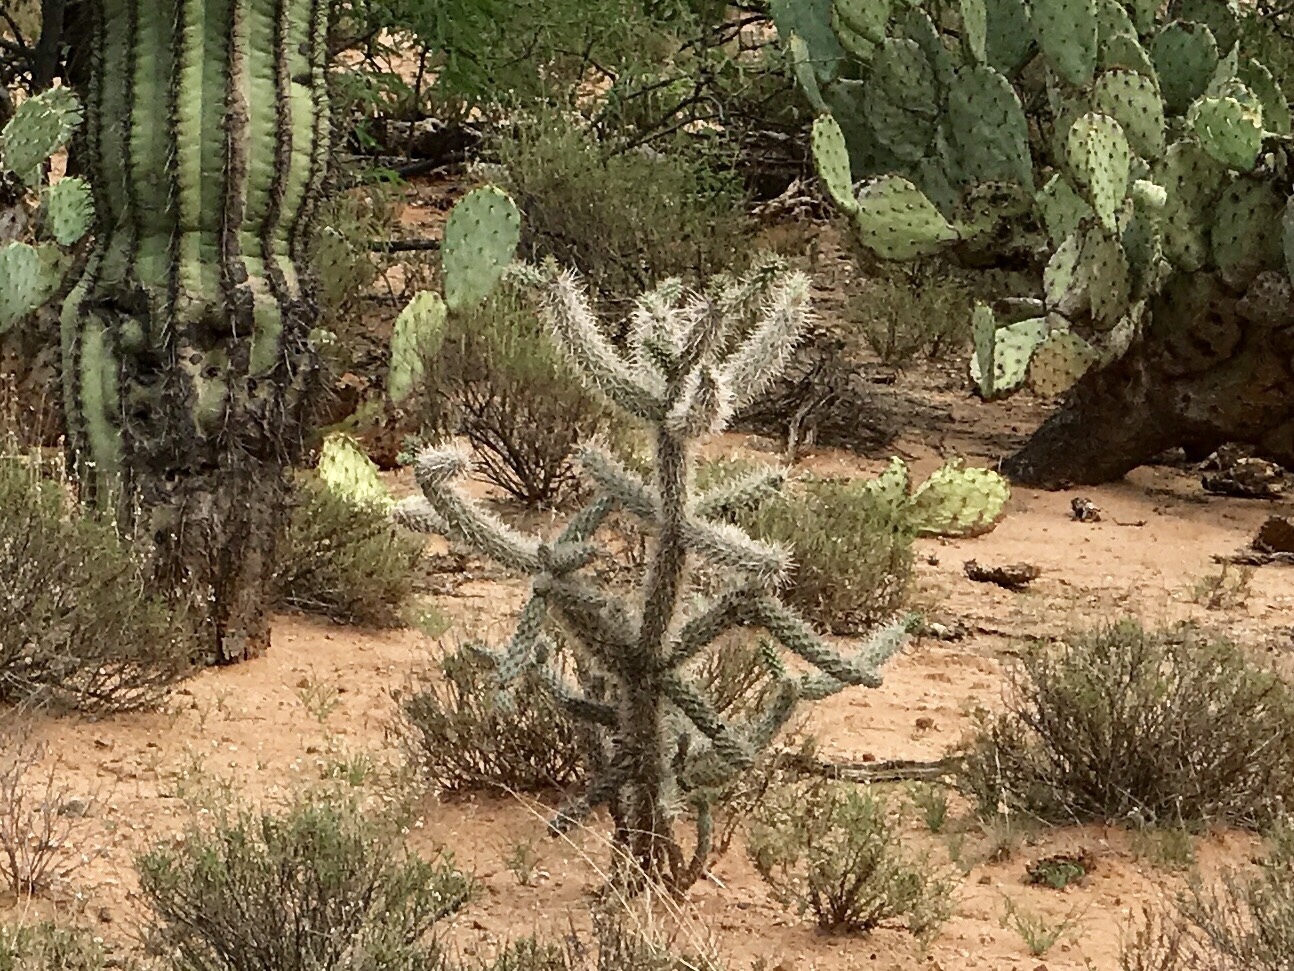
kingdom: Plantae
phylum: Tracheophyta
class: Magnoliopsida
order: Caryophyllales
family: Cactaceae
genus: Cylindropuntia
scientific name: Cylindropuntia imbricata
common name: Candelabrum cactus
